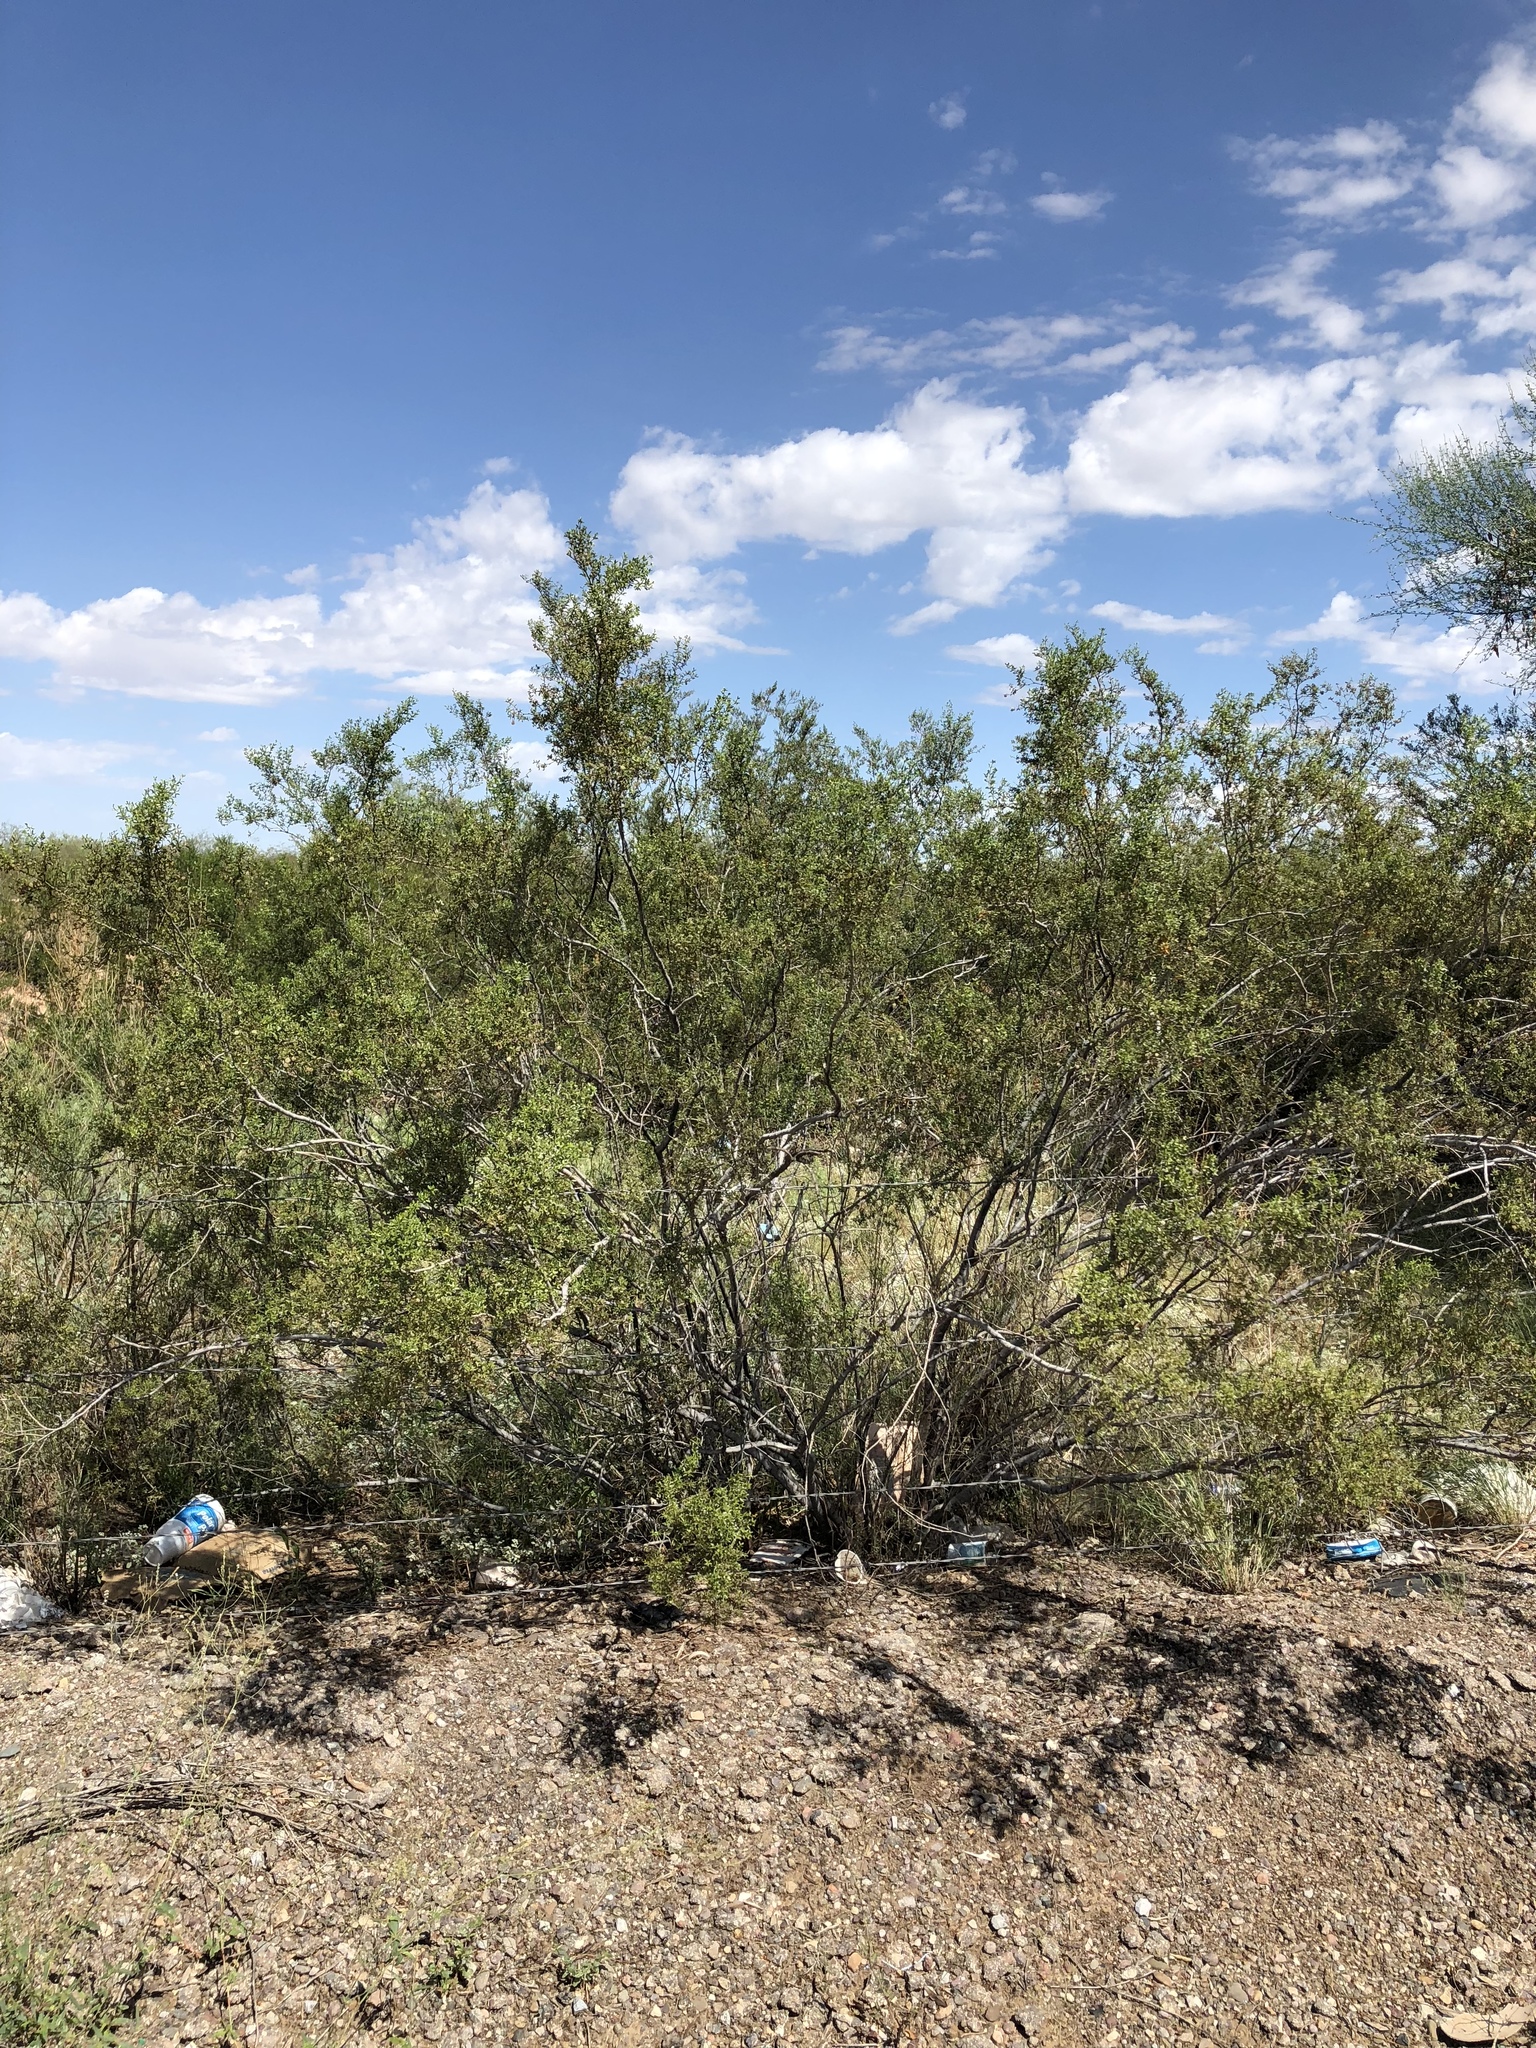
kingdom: Plantae
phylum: Tracheophyta
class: Magnoliopsida
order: Zygophyllales
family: Zygophyllaceae
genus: Larrea
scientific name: Larrea tridentata
